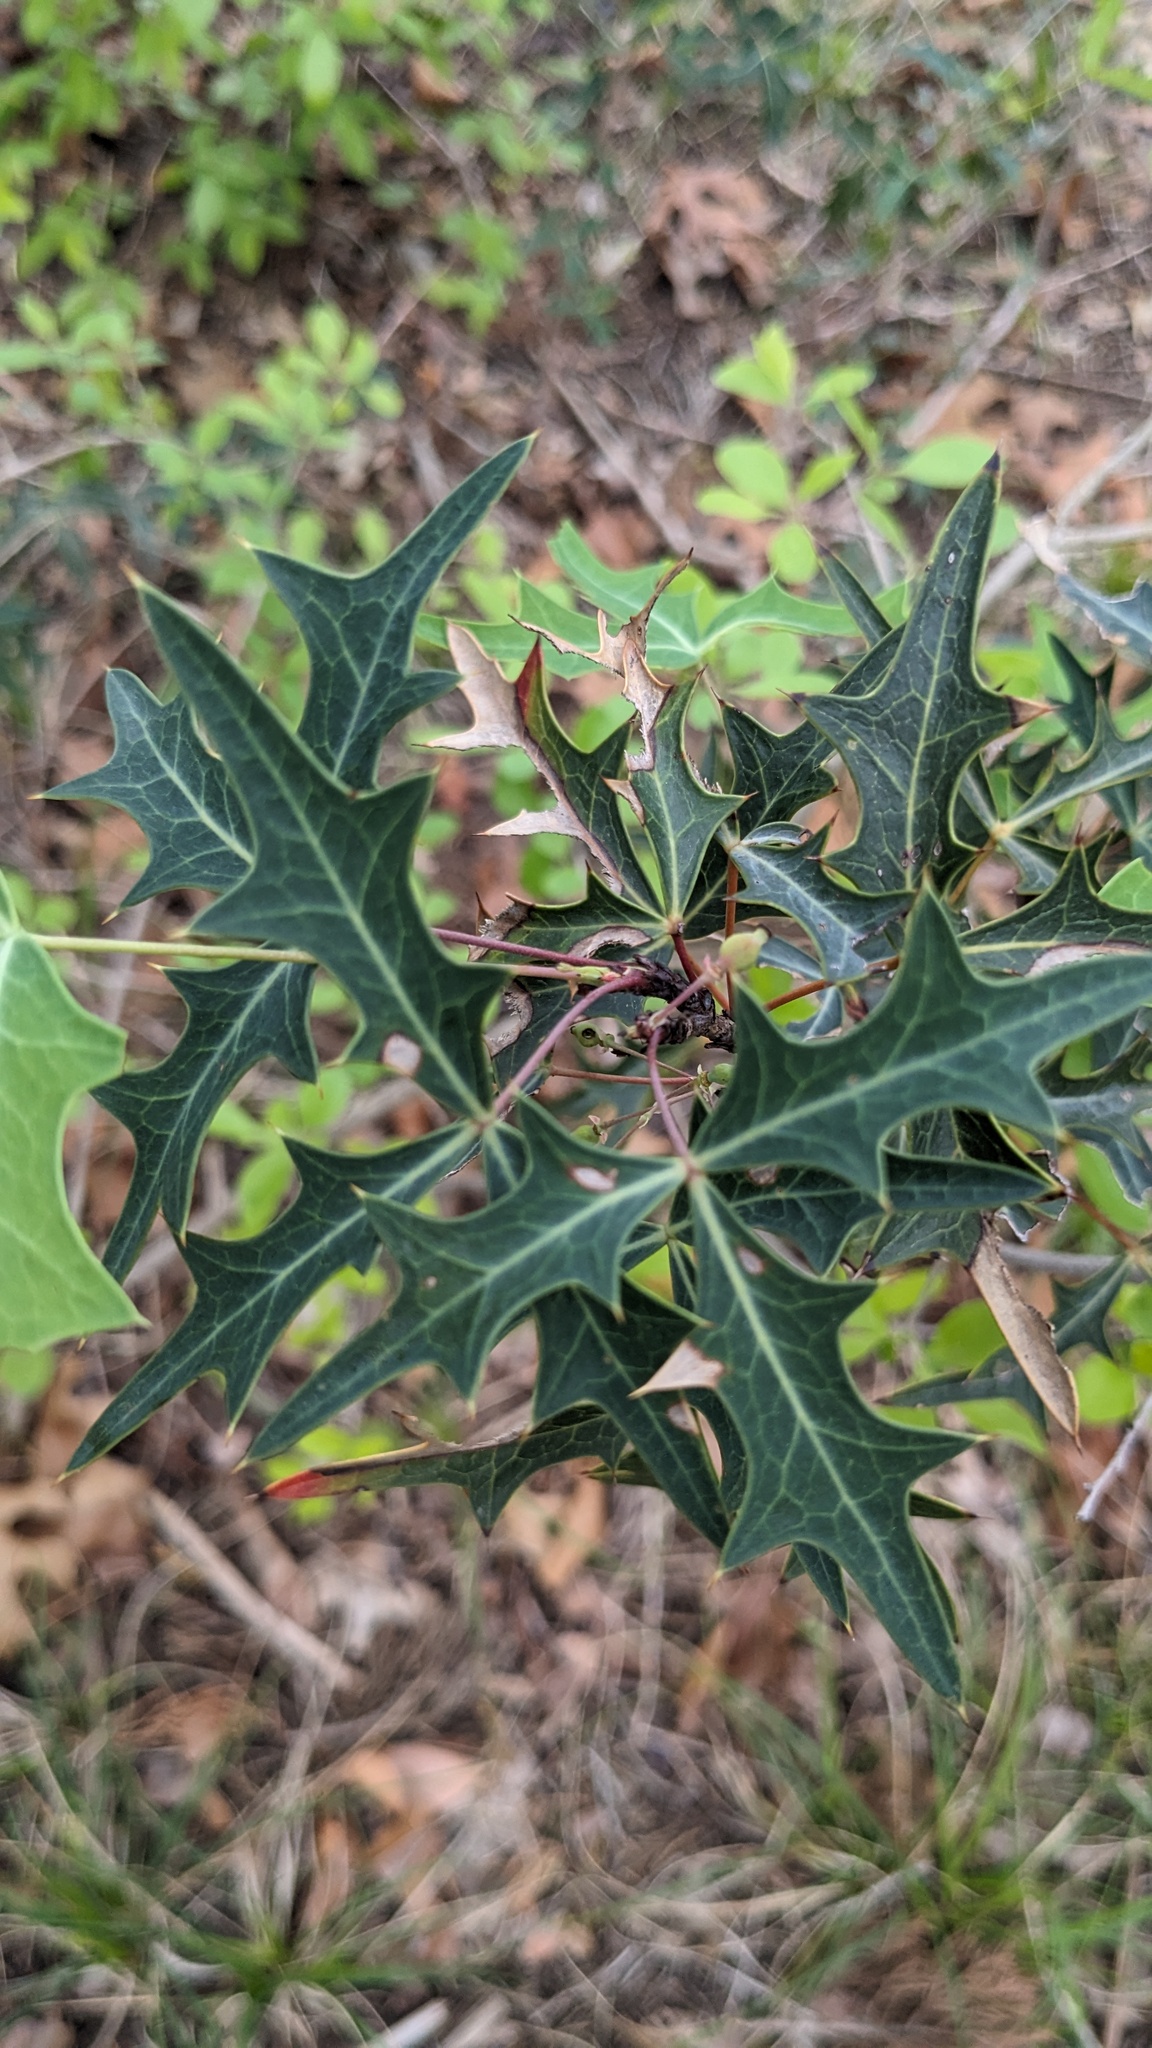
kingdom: Plantae
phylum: Tracheophyta
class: Magnoliopsida
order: Ranunculales
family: Berberidaceae
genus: Alloberberis
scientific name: Alloberberis trifoliolata
